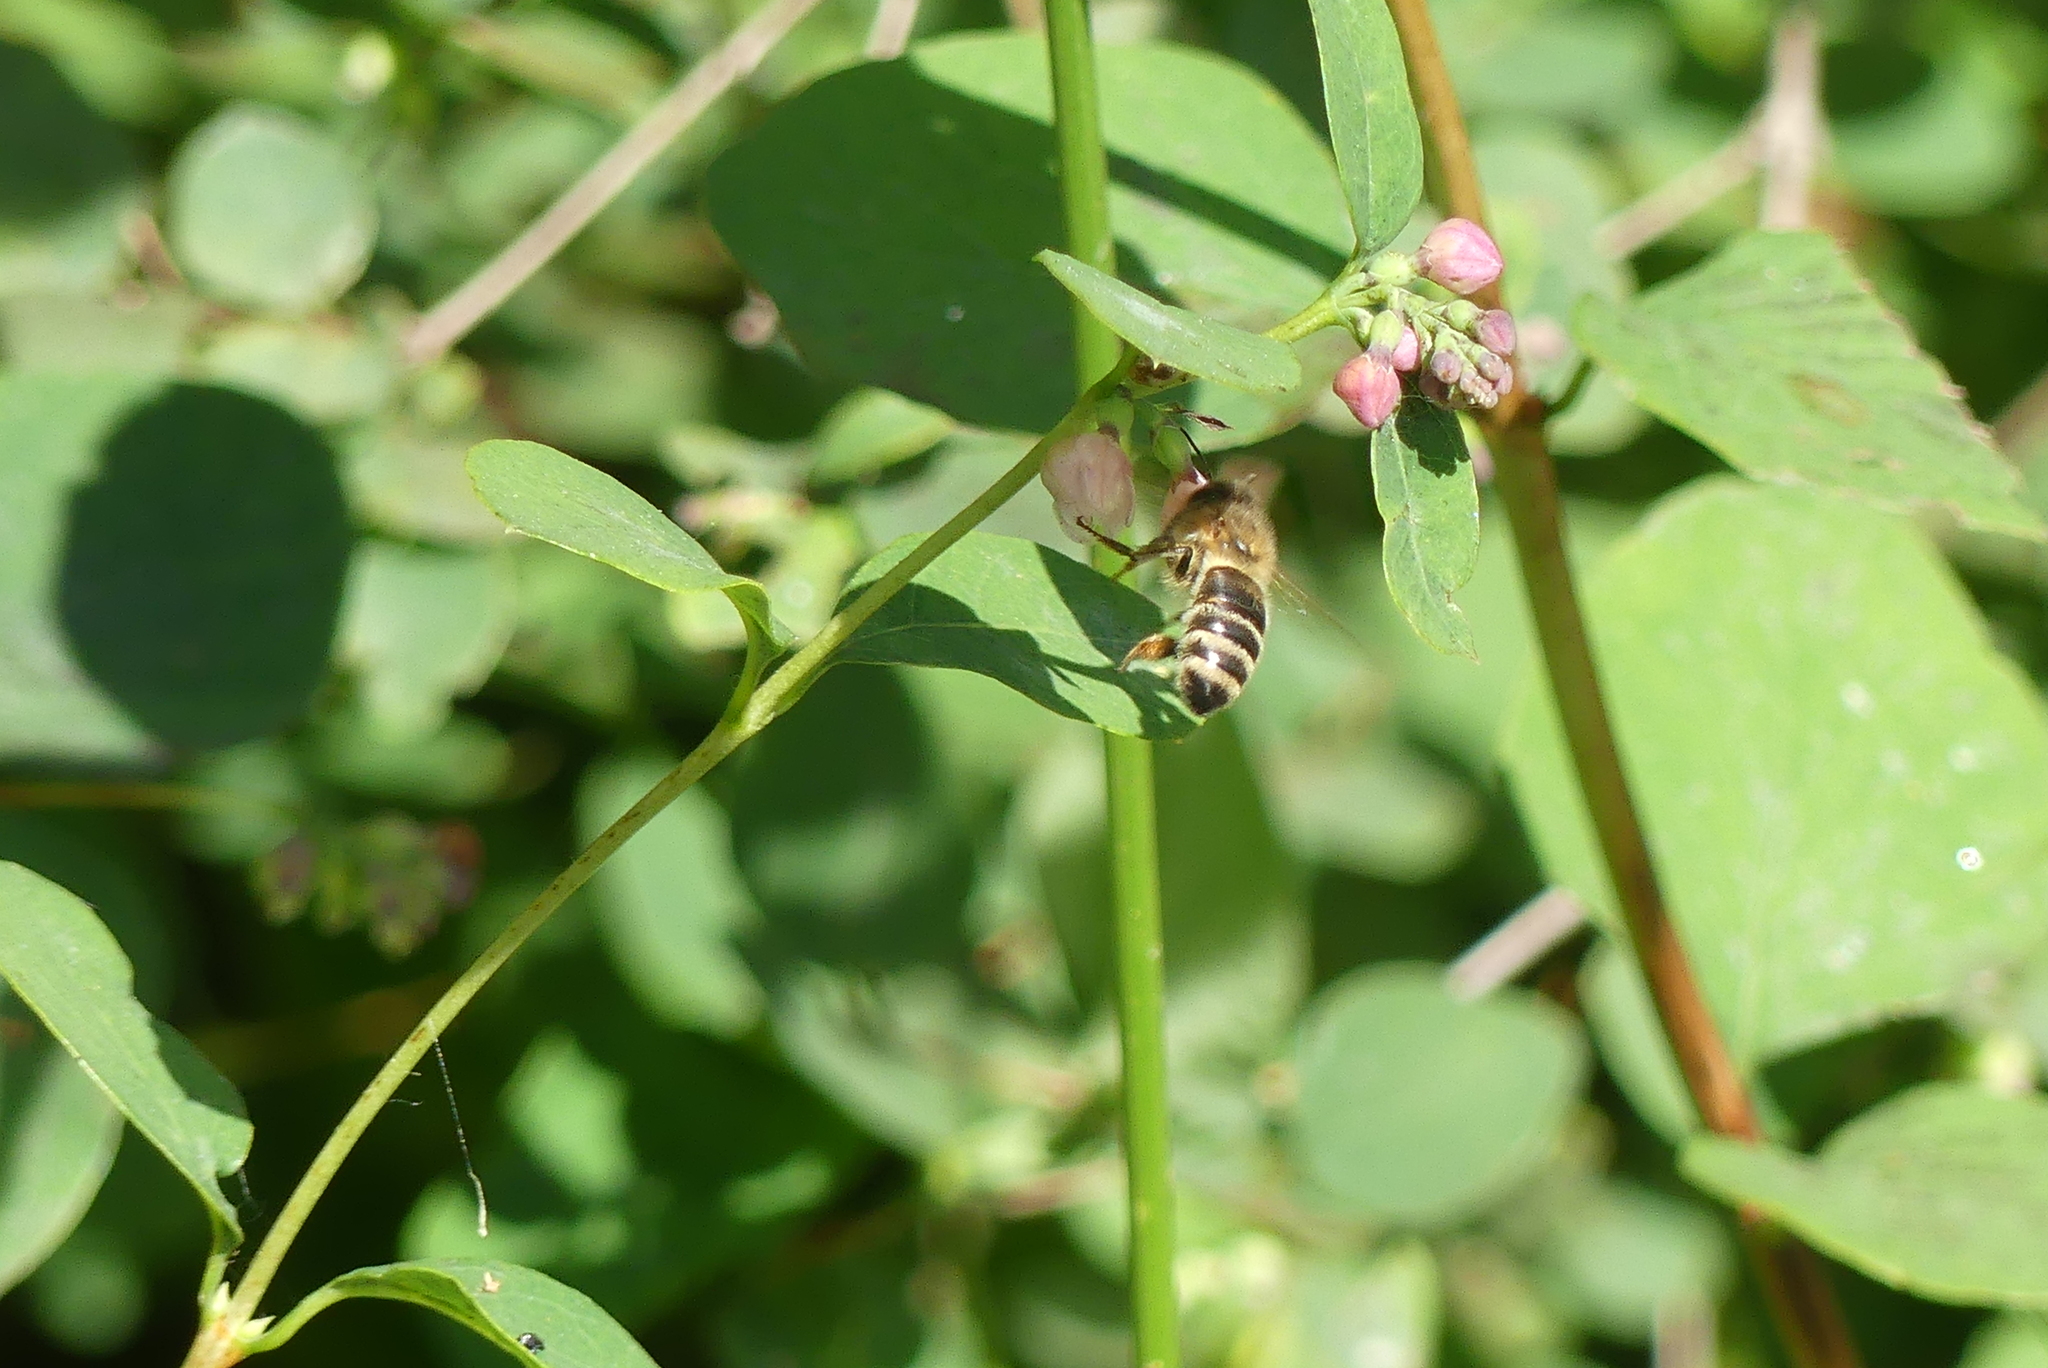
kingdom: Animalia
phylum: Arthropoda
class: Insecta
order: Hymenoptera
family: Apidae
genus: Apis
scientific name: Apis mellifera
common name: Honey bee
